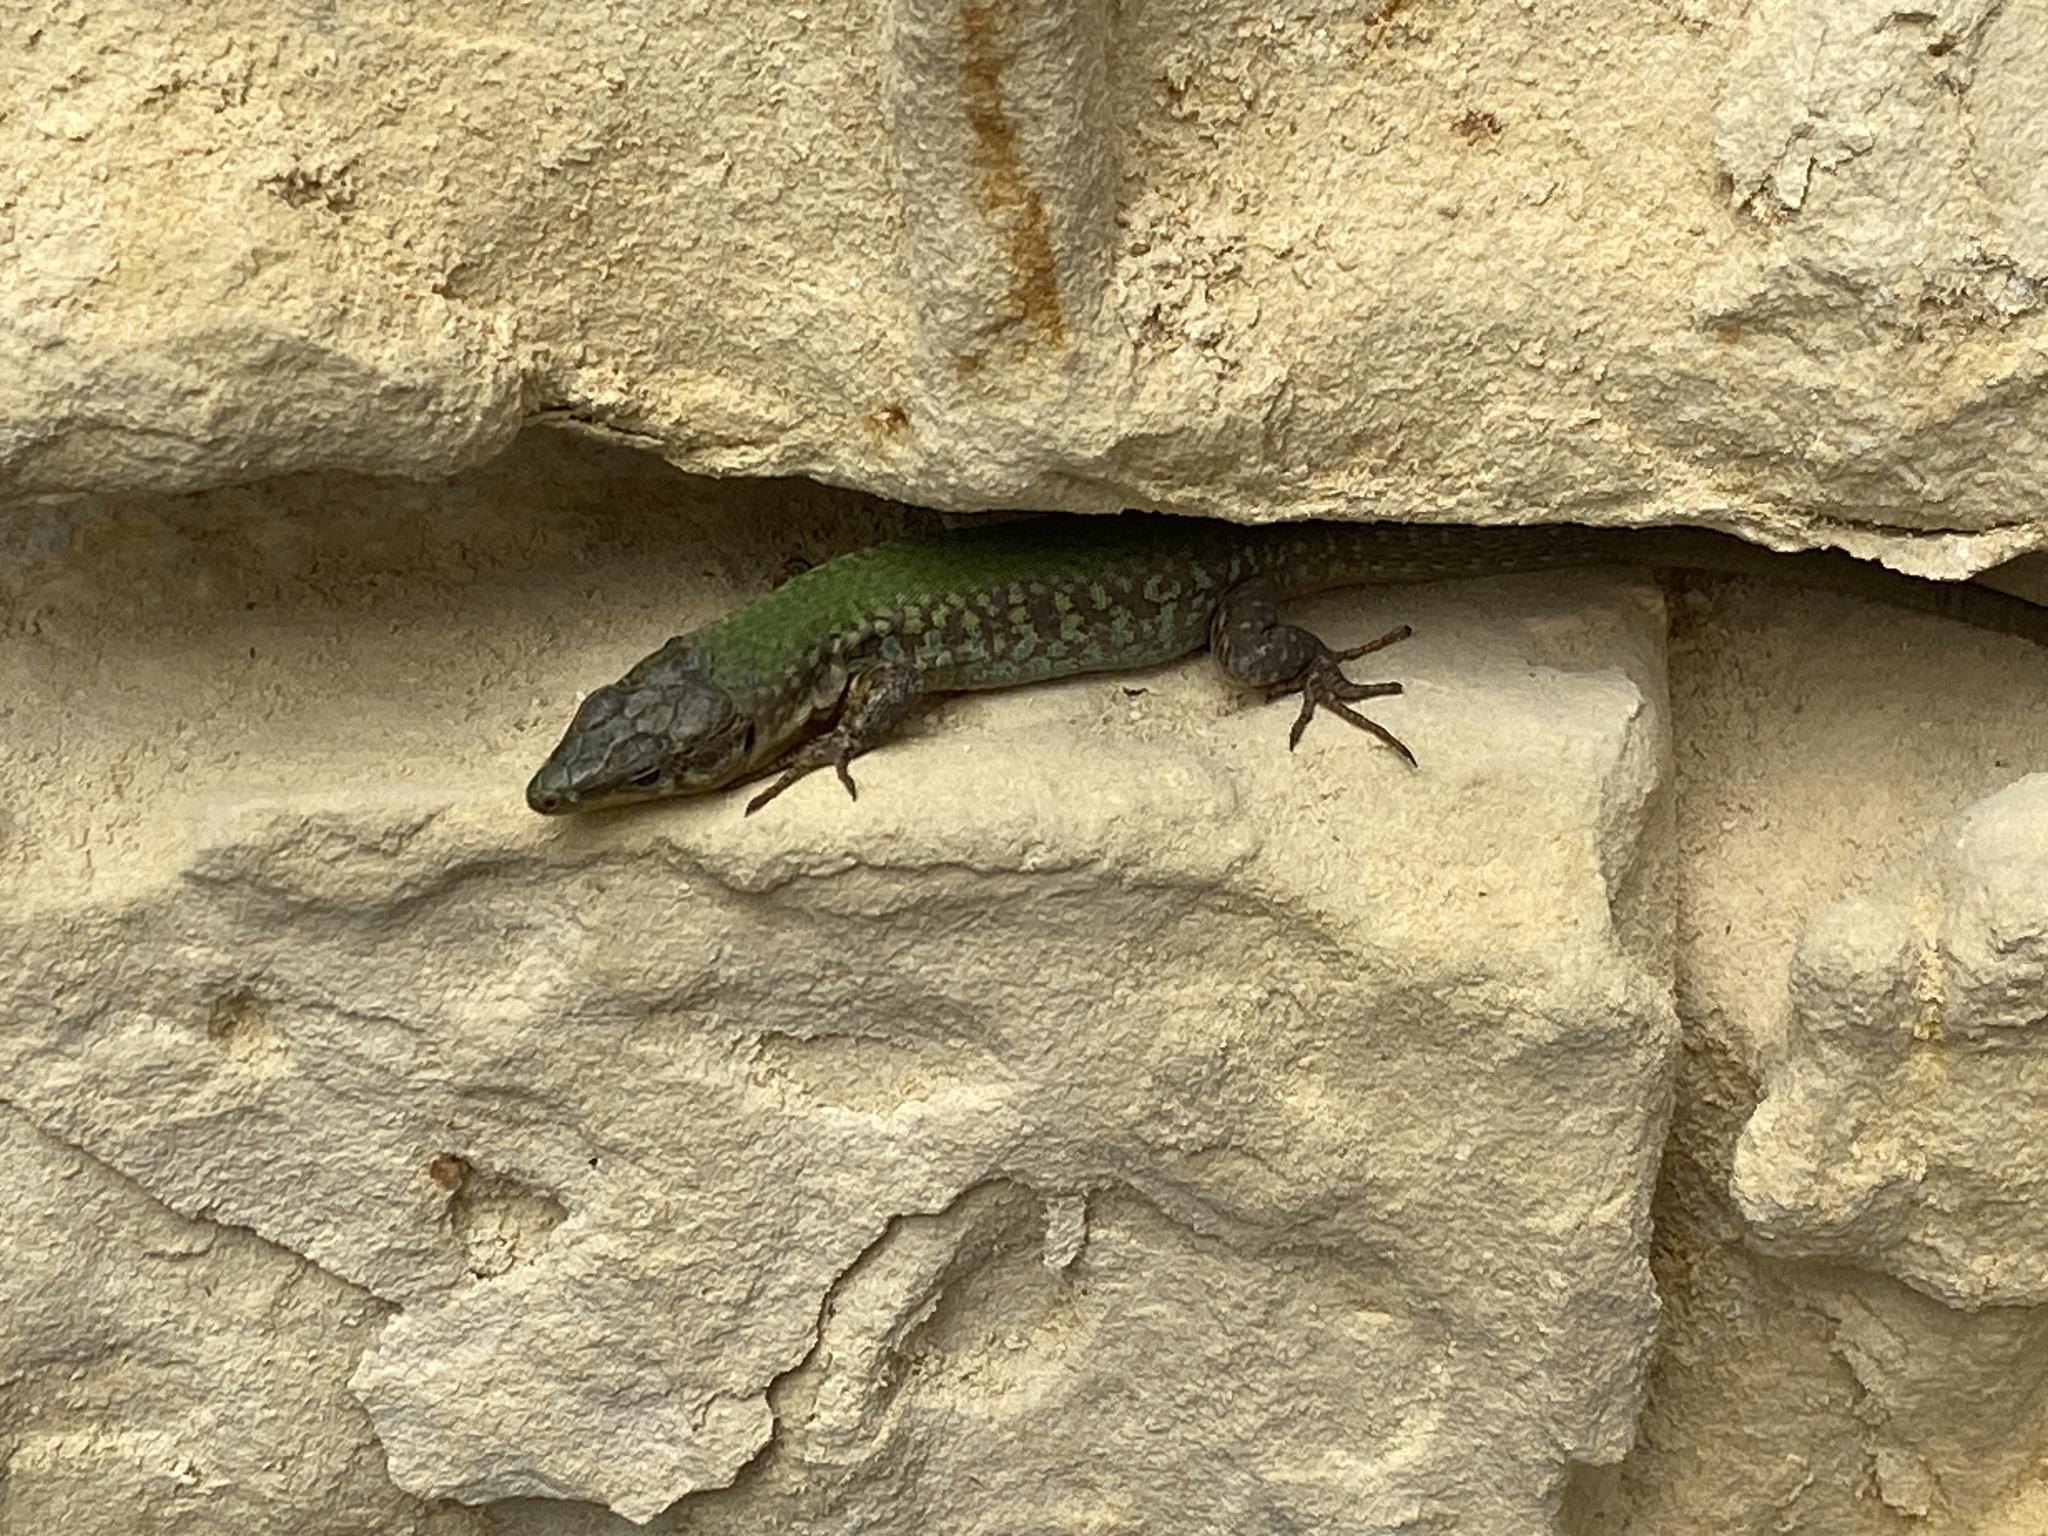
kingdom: Animalia
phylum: Chordata
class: Squamata
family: Lacertidae
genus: Podarcis
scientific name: Podarcis filfolensis
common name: Maltese wall lizard
